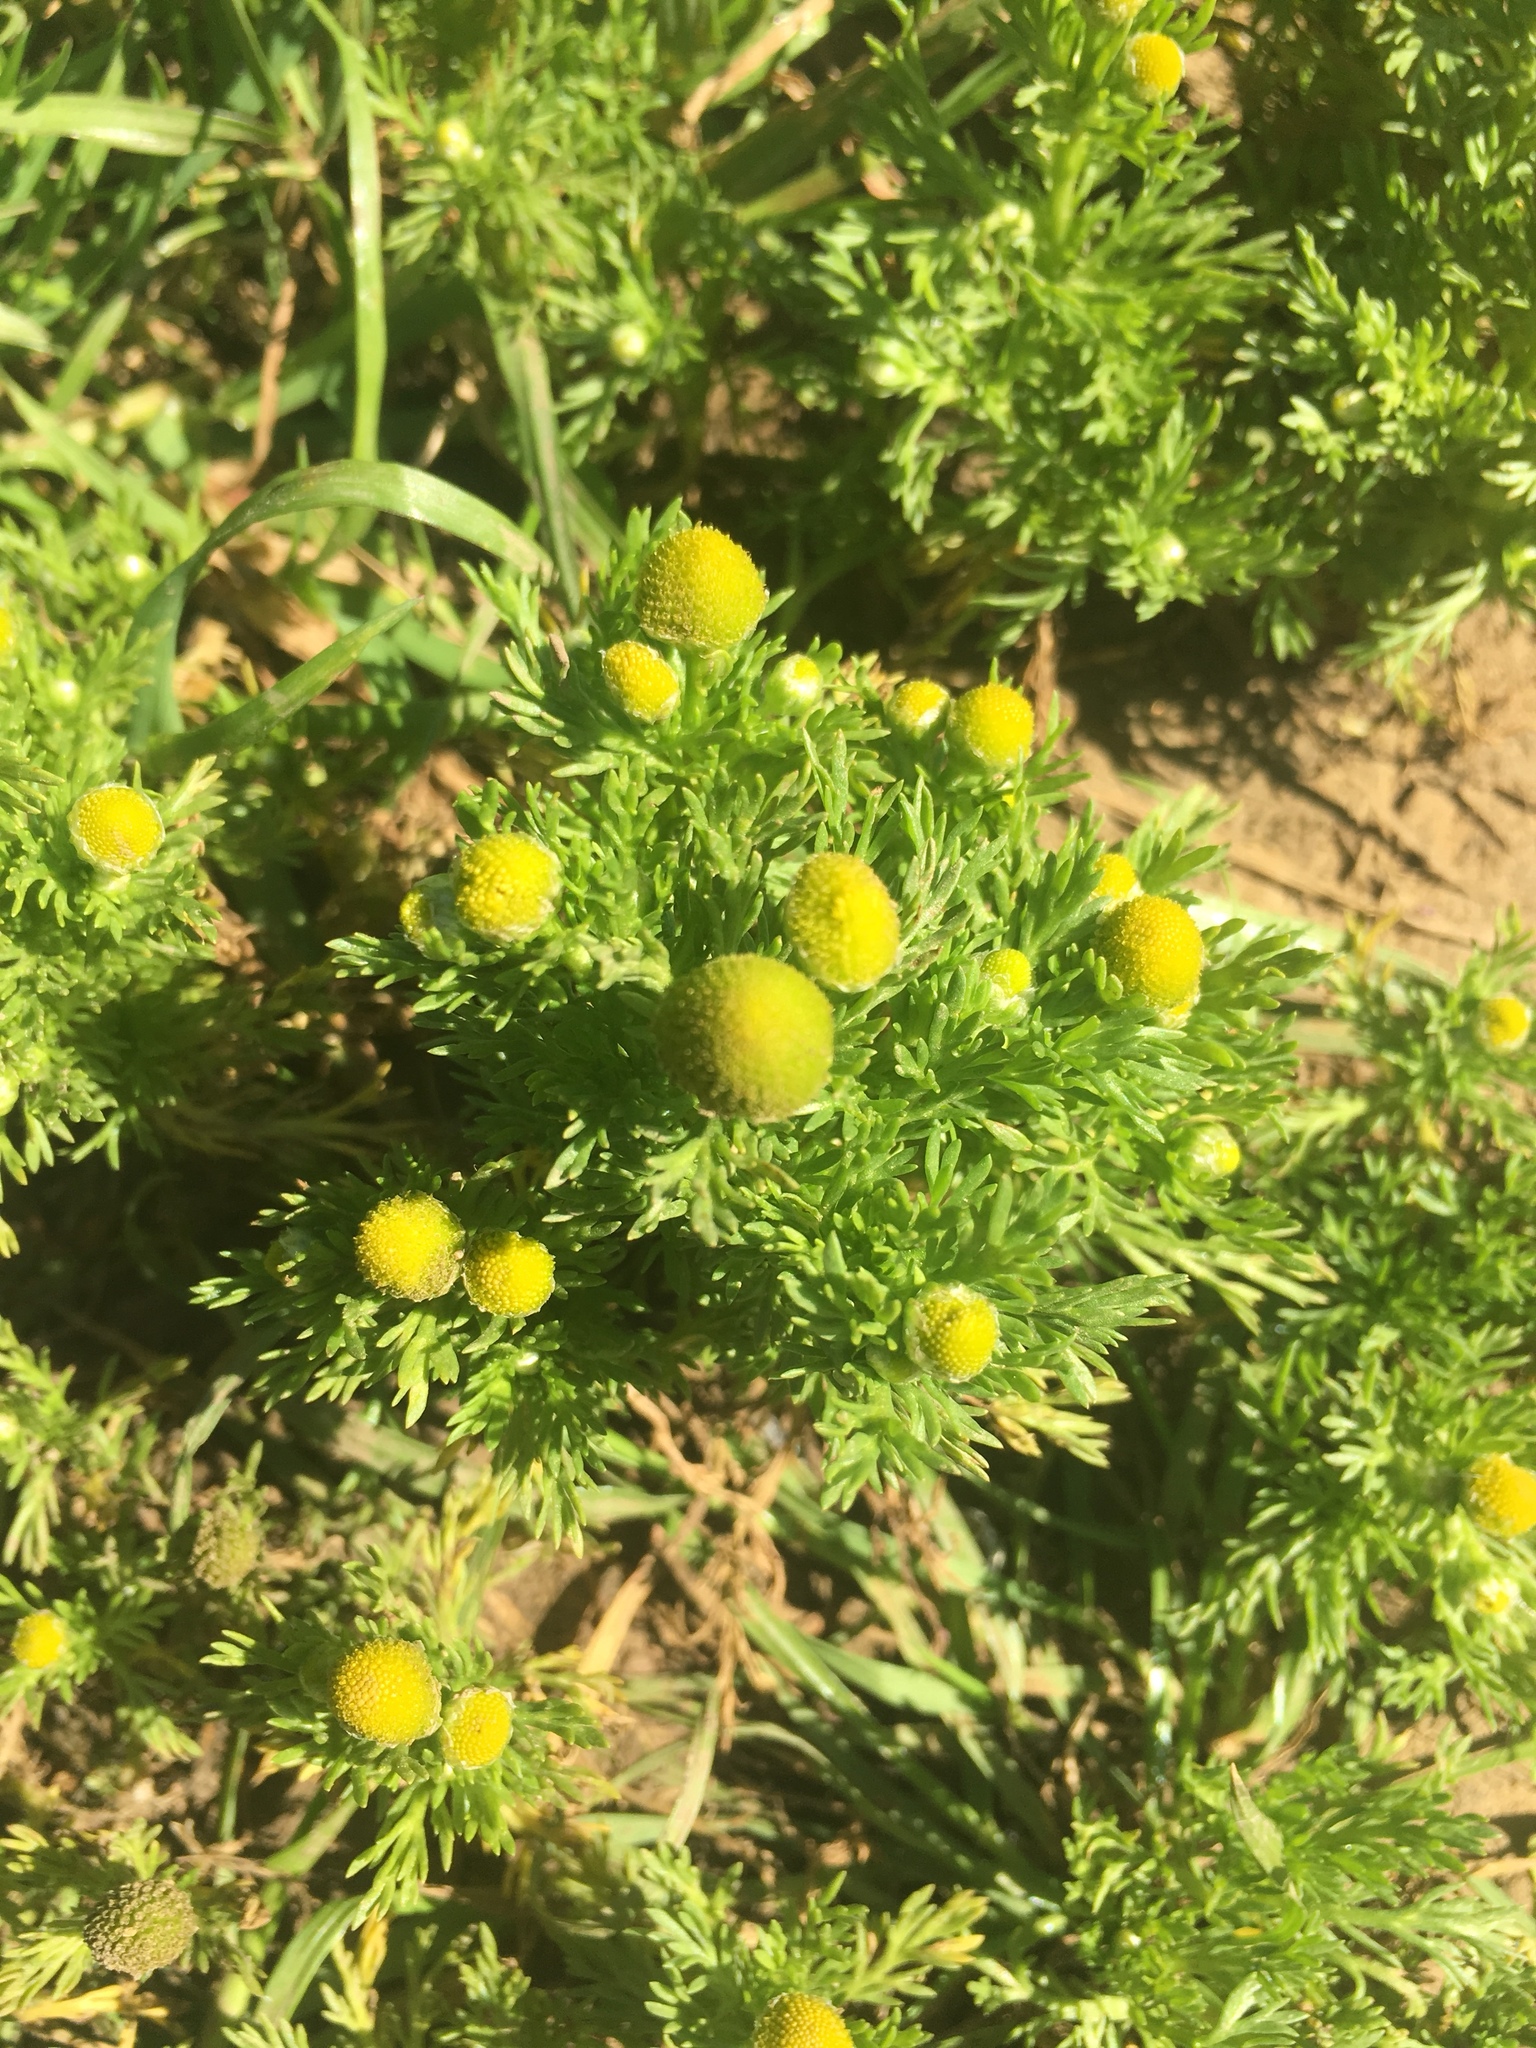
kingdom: Plantae
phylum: Tracheophyta
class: Magnoliopsida
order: Asterales
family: Asteraceae
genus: Matricaria
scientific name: Matricaria discoidea
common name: Disc mayweed
